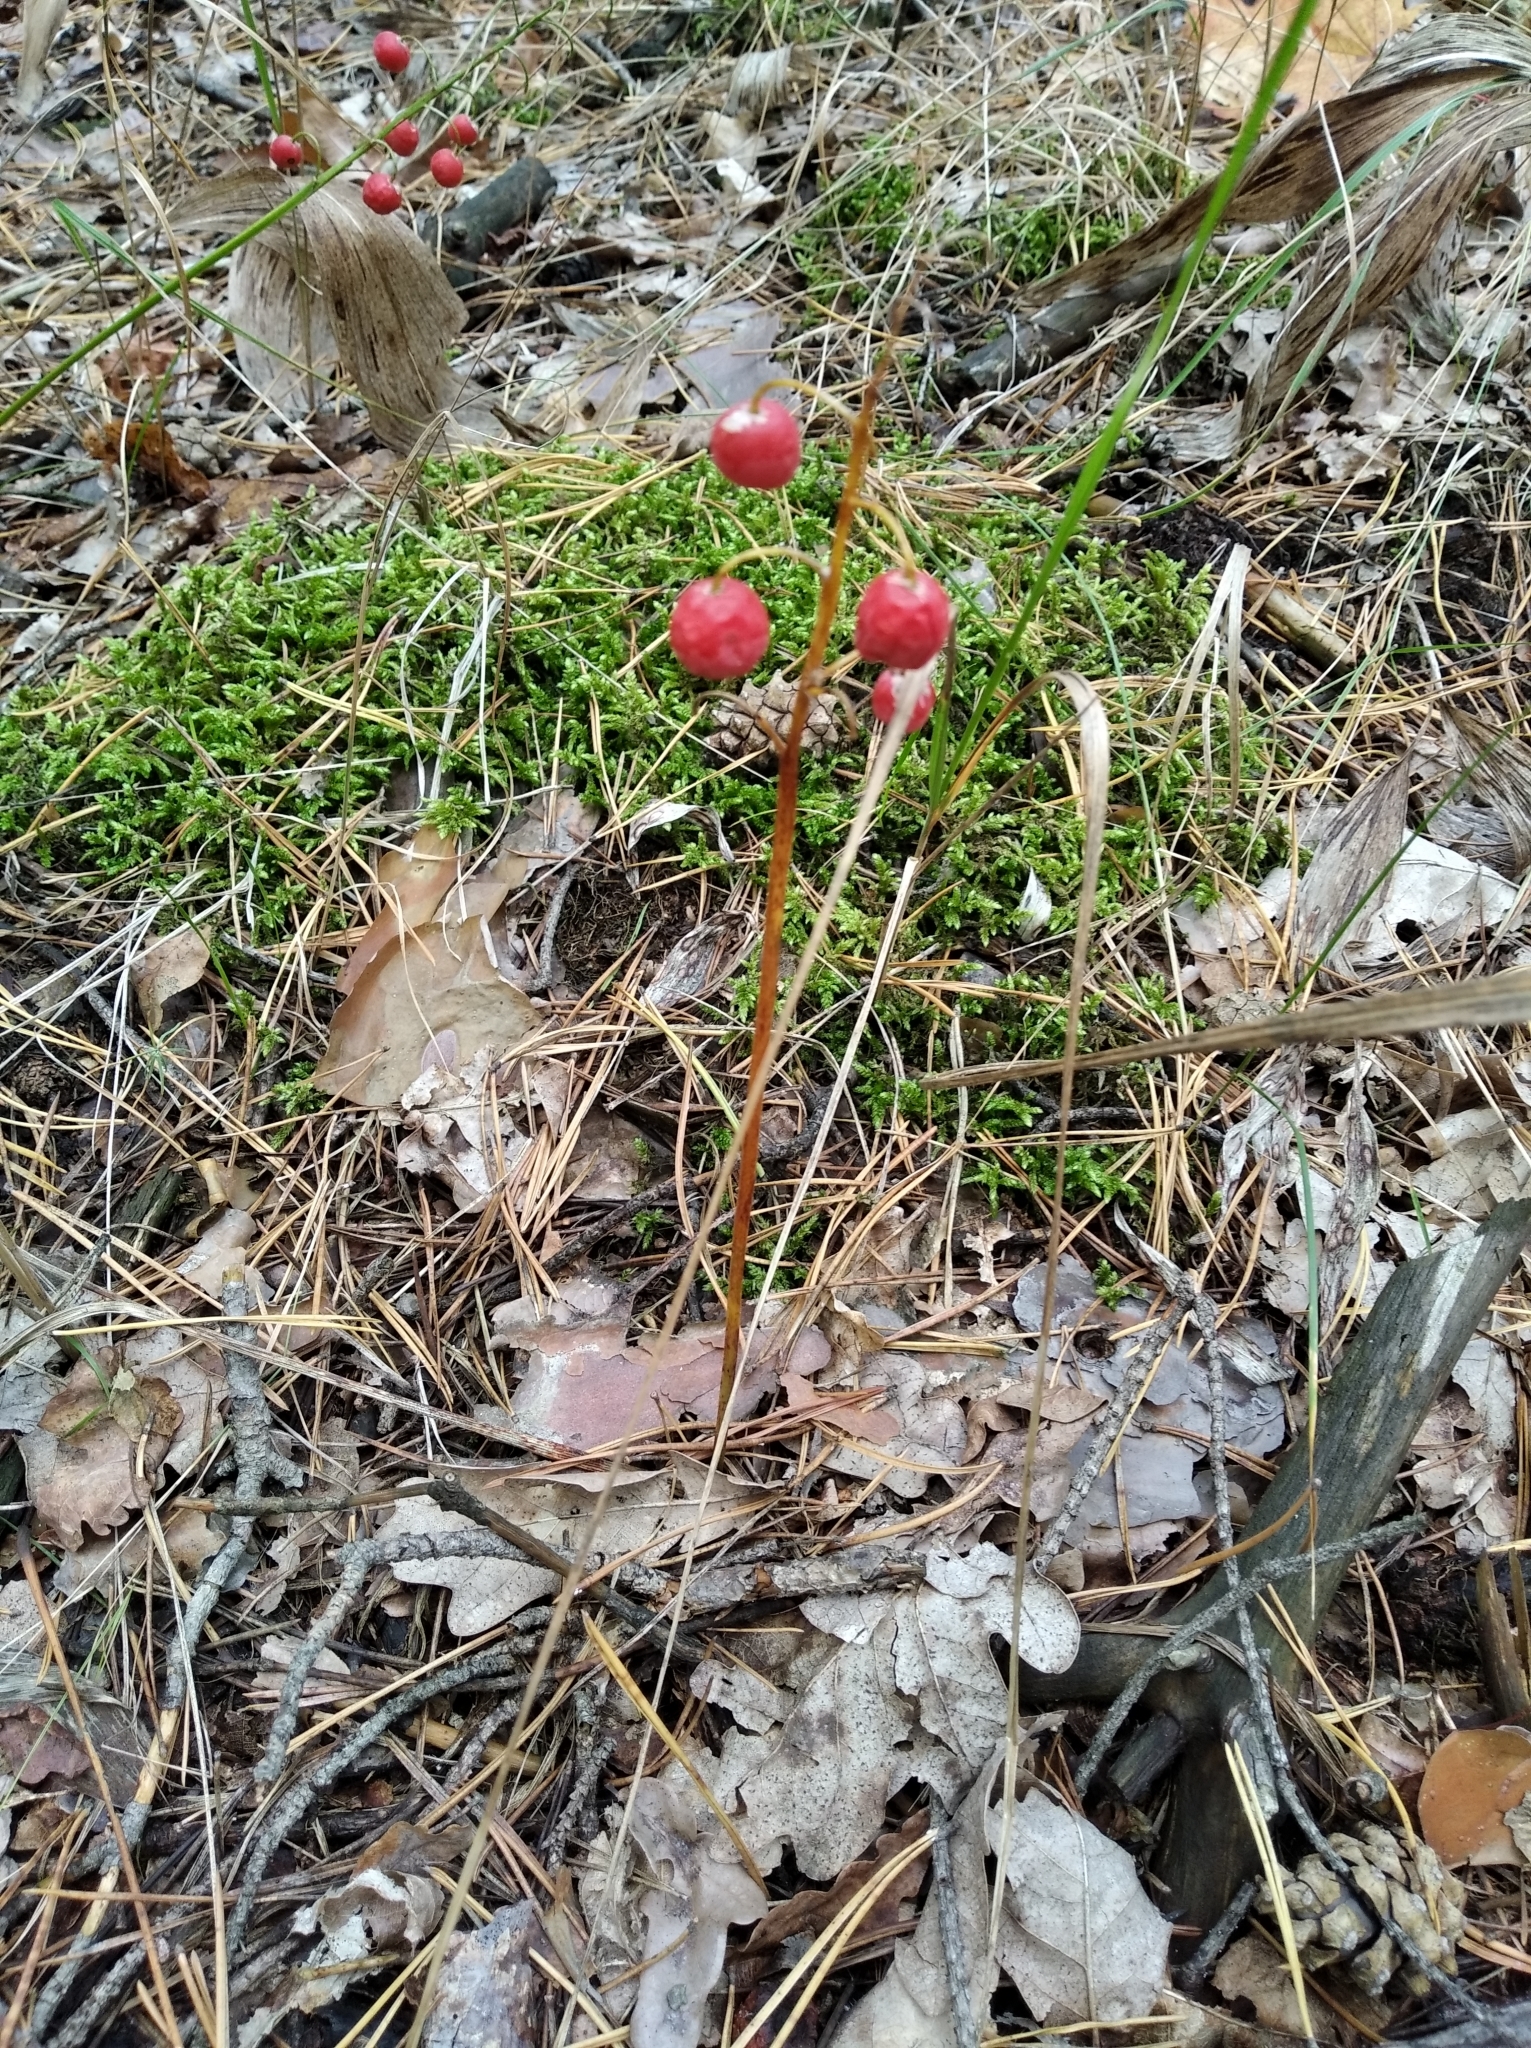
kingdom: Plantae
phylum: Tracheophyta
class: Liliopsida
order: Asparagales
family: Asparagaceae
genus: Convallaria
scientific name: Convallaria majalis
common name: Lily-of-the-valley
